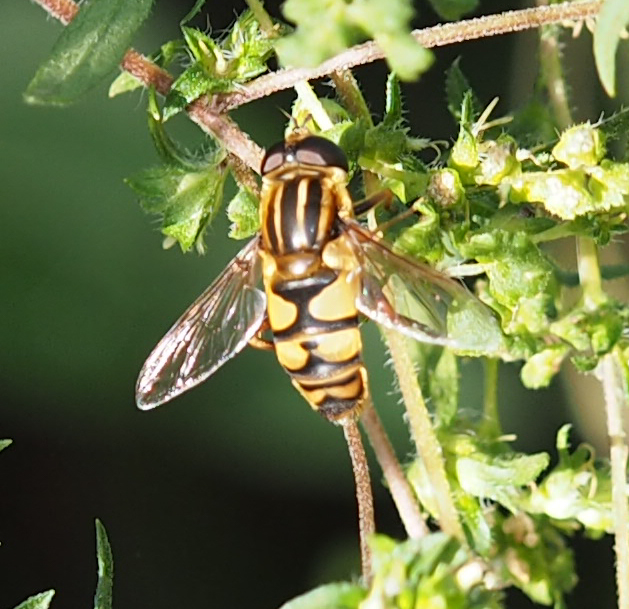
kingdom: Animalia
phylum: Arthropoda
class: Insecta
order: Diptera
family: Syrphidae
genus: Helophilus
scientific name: Helophilus fasciatus
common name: Narrow-headed marsh fly
